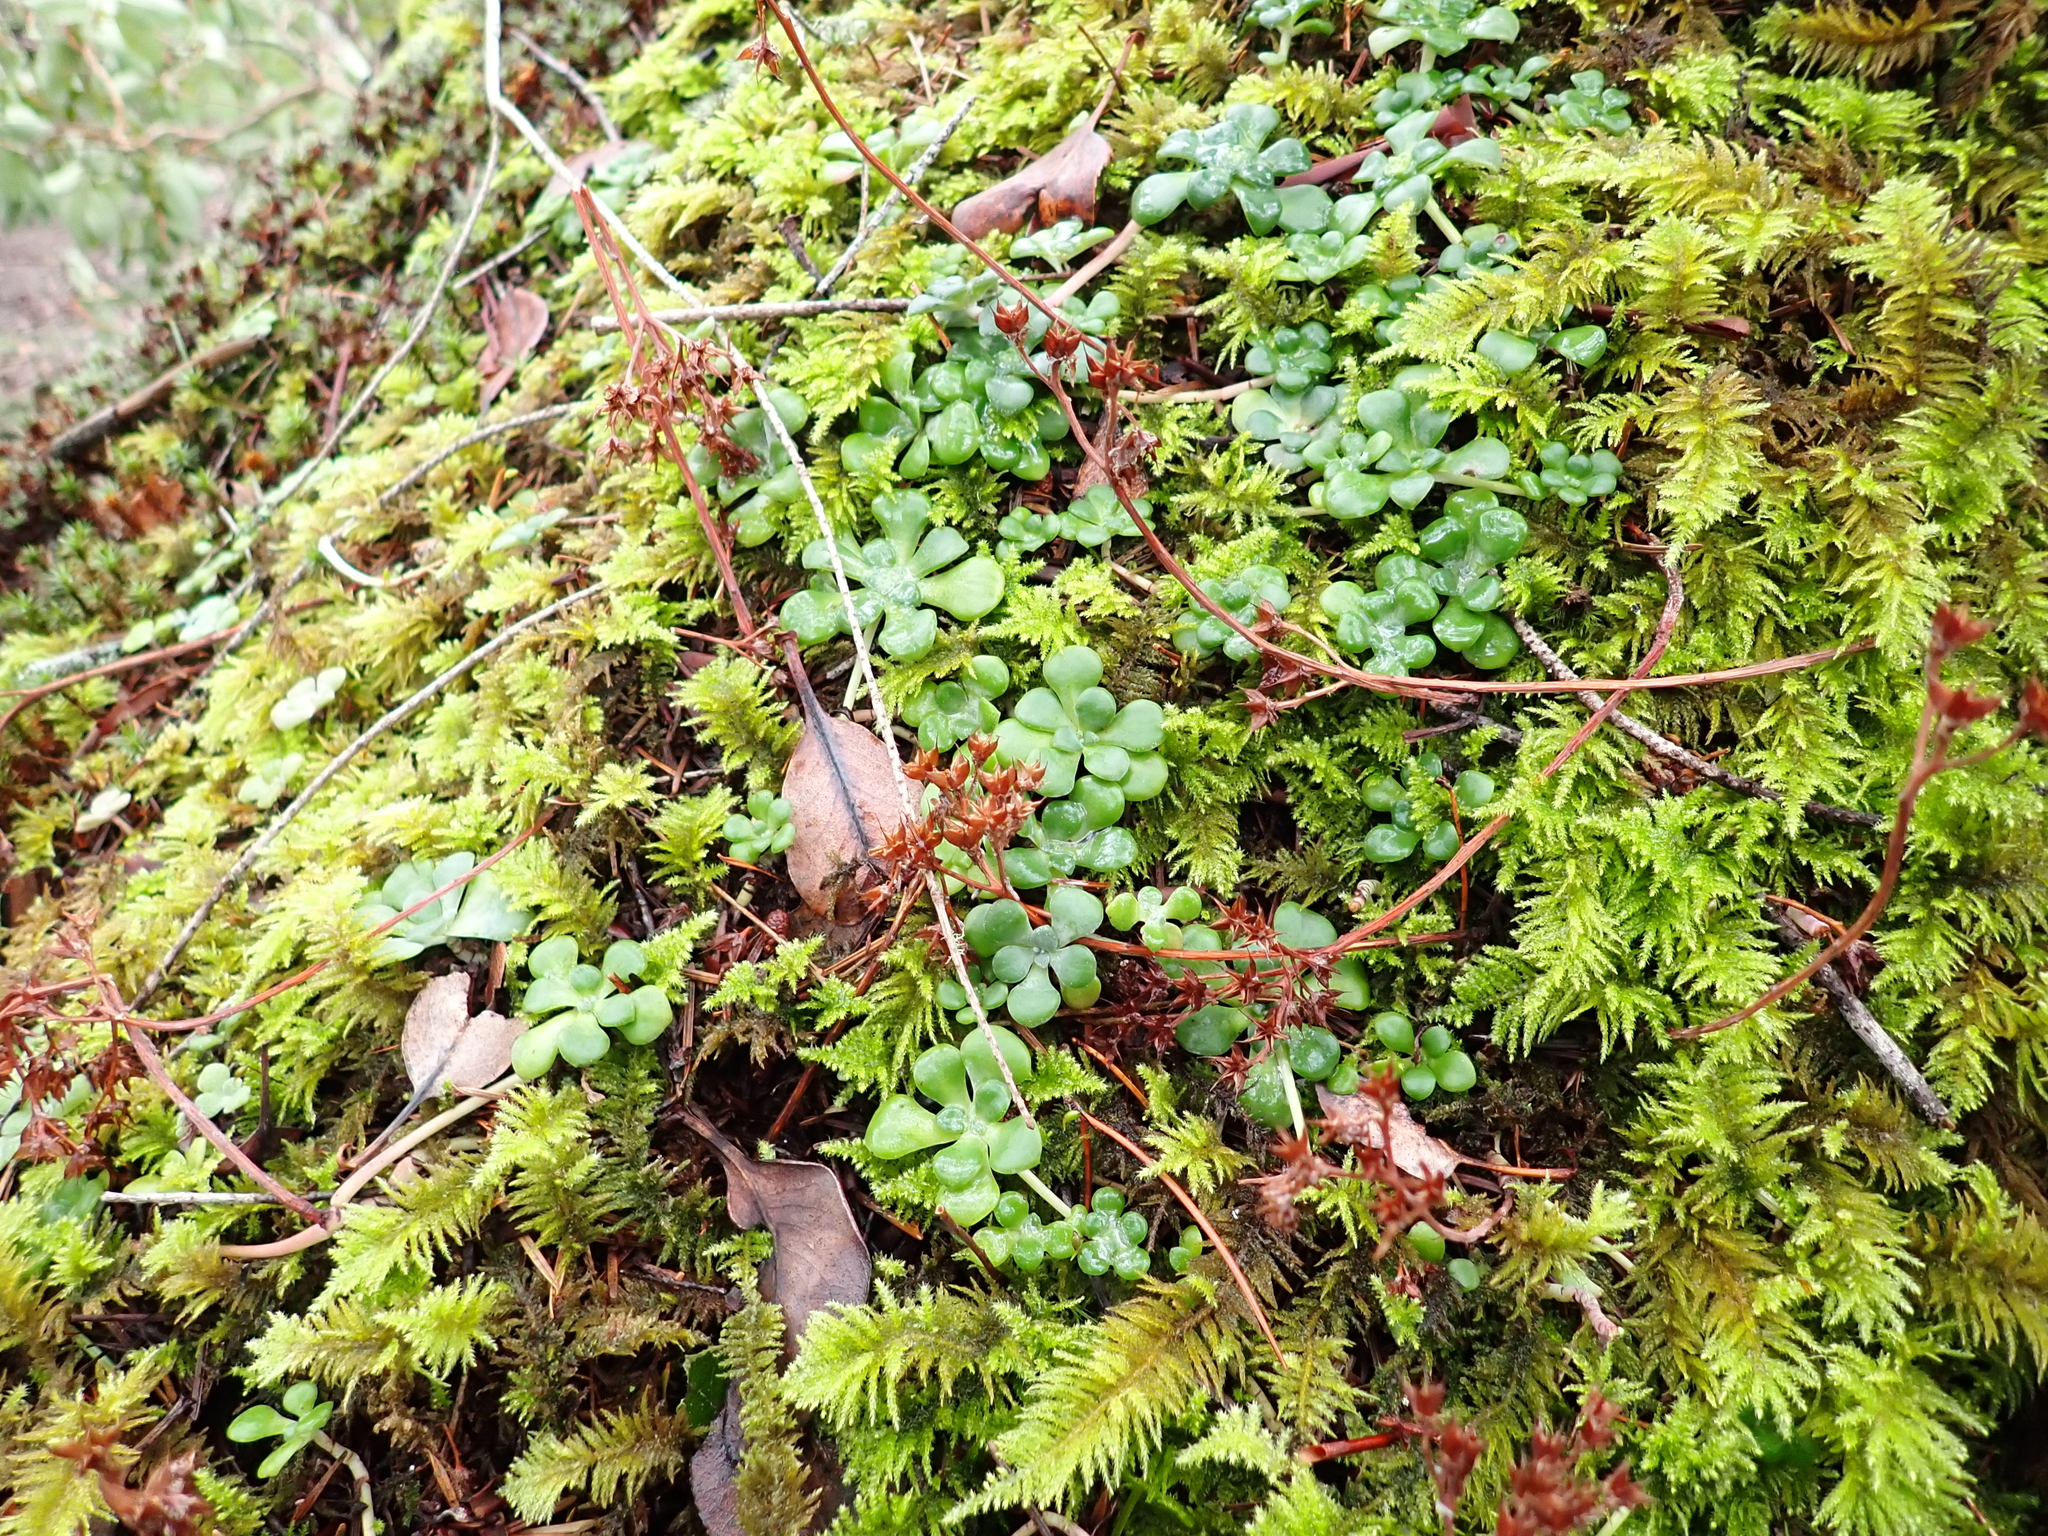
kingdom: Plantae
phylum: Tracheophyta
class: Magnoliopsida
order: Saxifragales
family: Crassulaceae
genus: Sedum
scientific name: Sedum spathulifolium
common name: Colorado stonecrop
